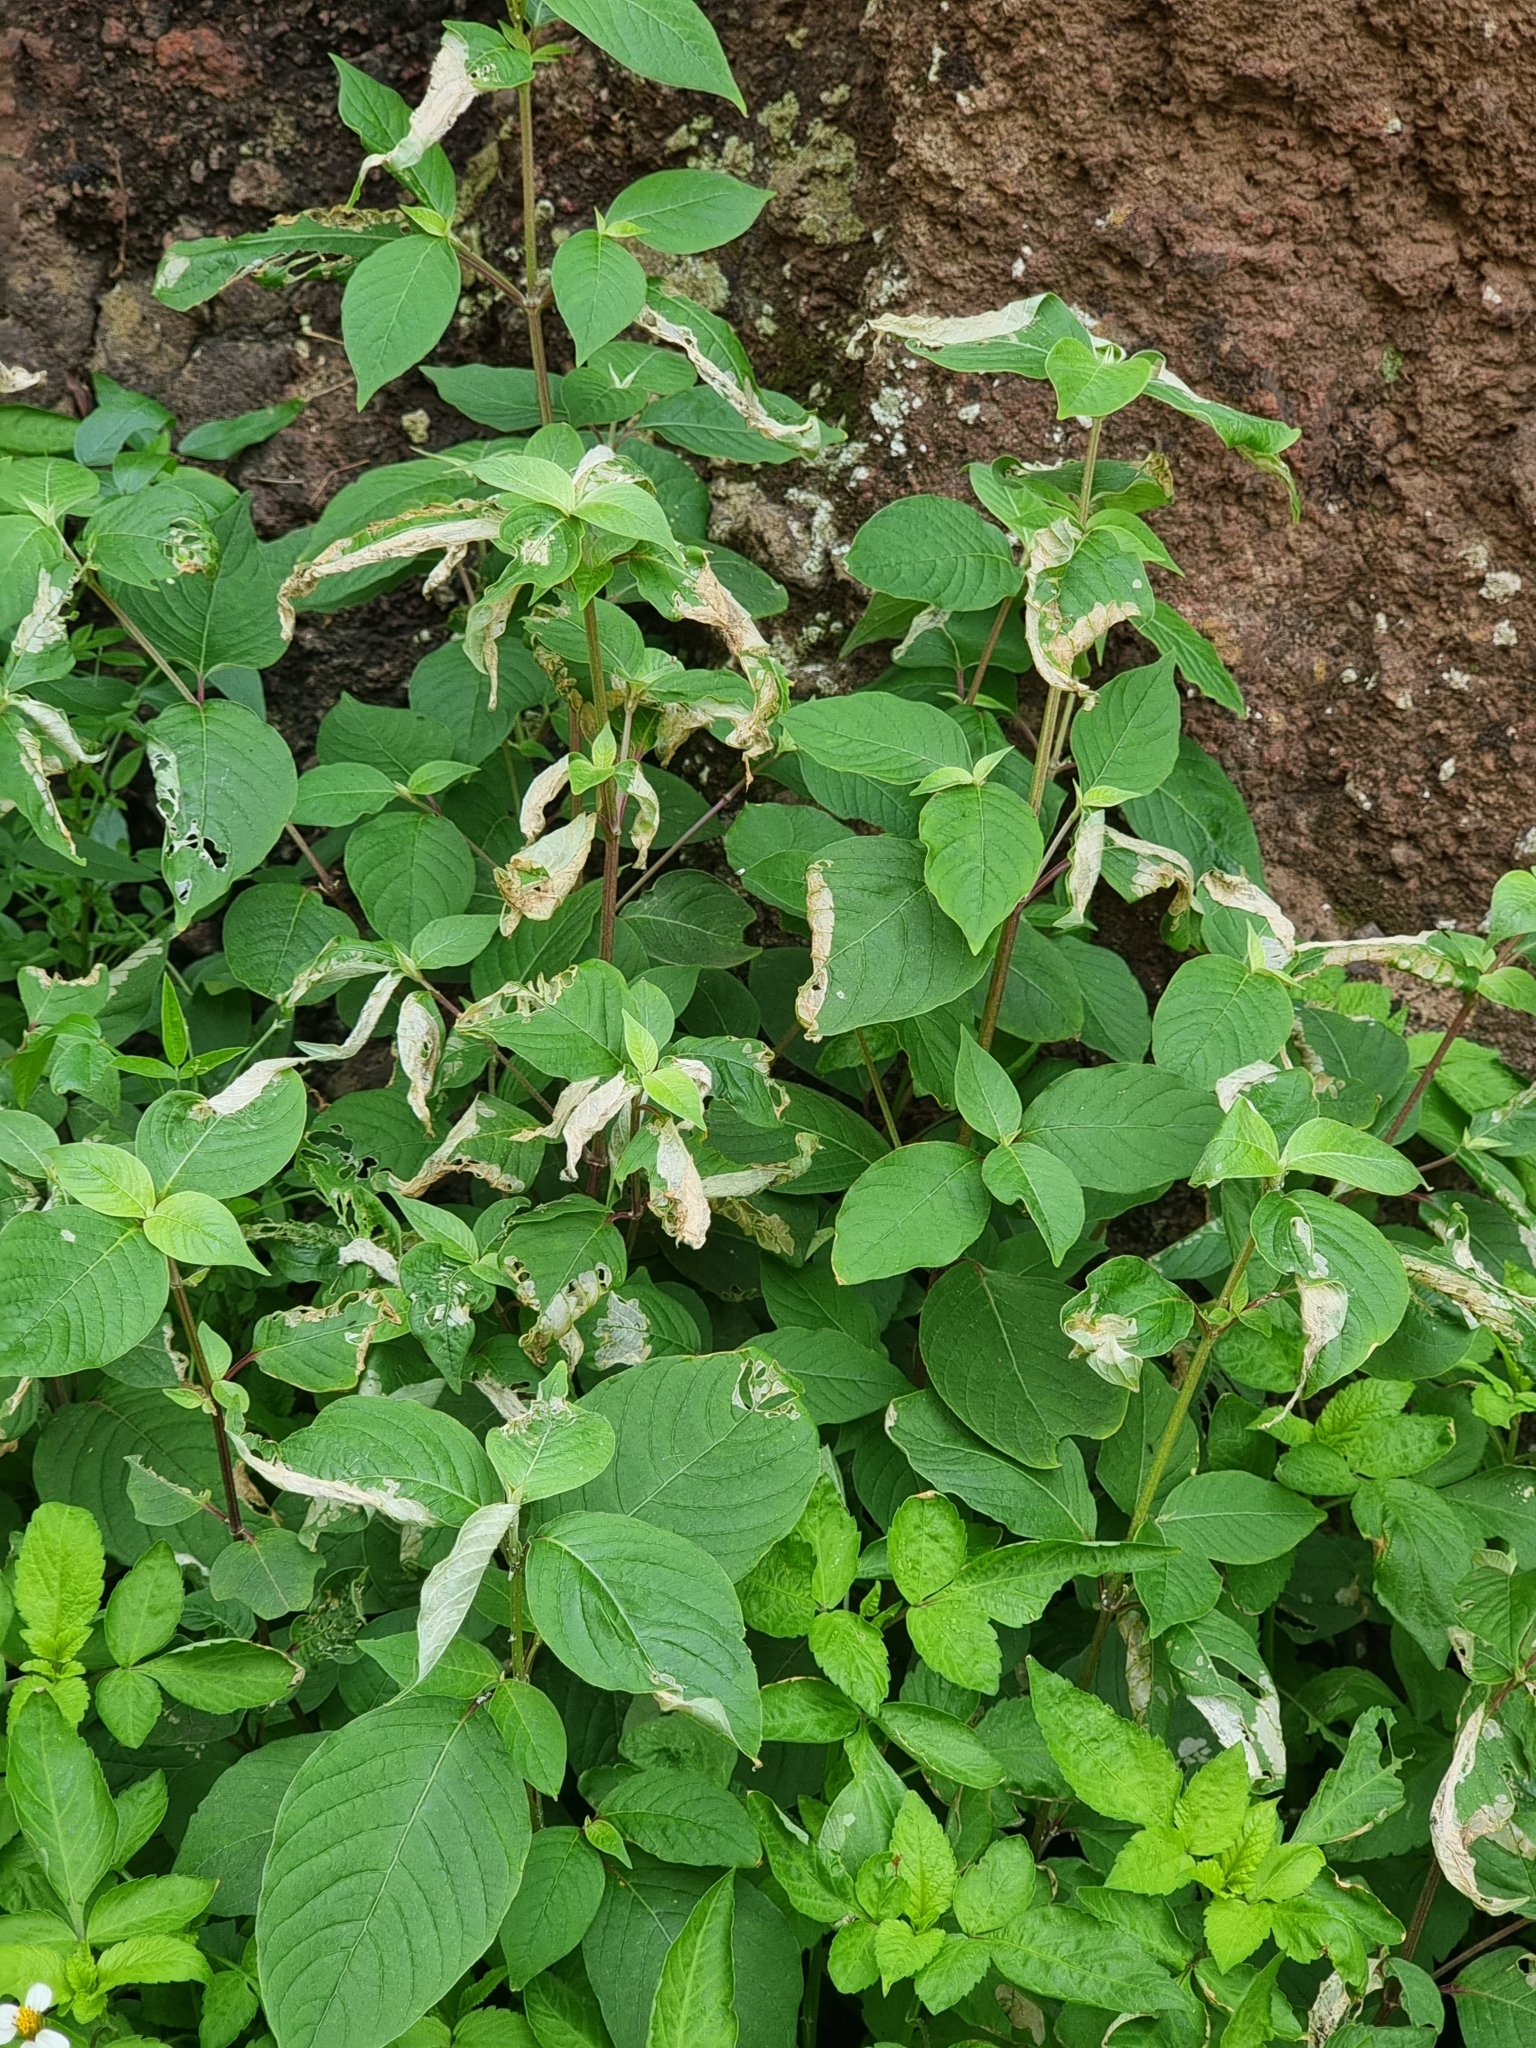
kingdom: Plantae
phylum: Tracheophyta
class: Magnoliopsida
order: Caryophyllales
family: Amaranthaceae
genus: Achyranthes
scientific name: Achyranthes aspera
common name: Devil's horsewhip
